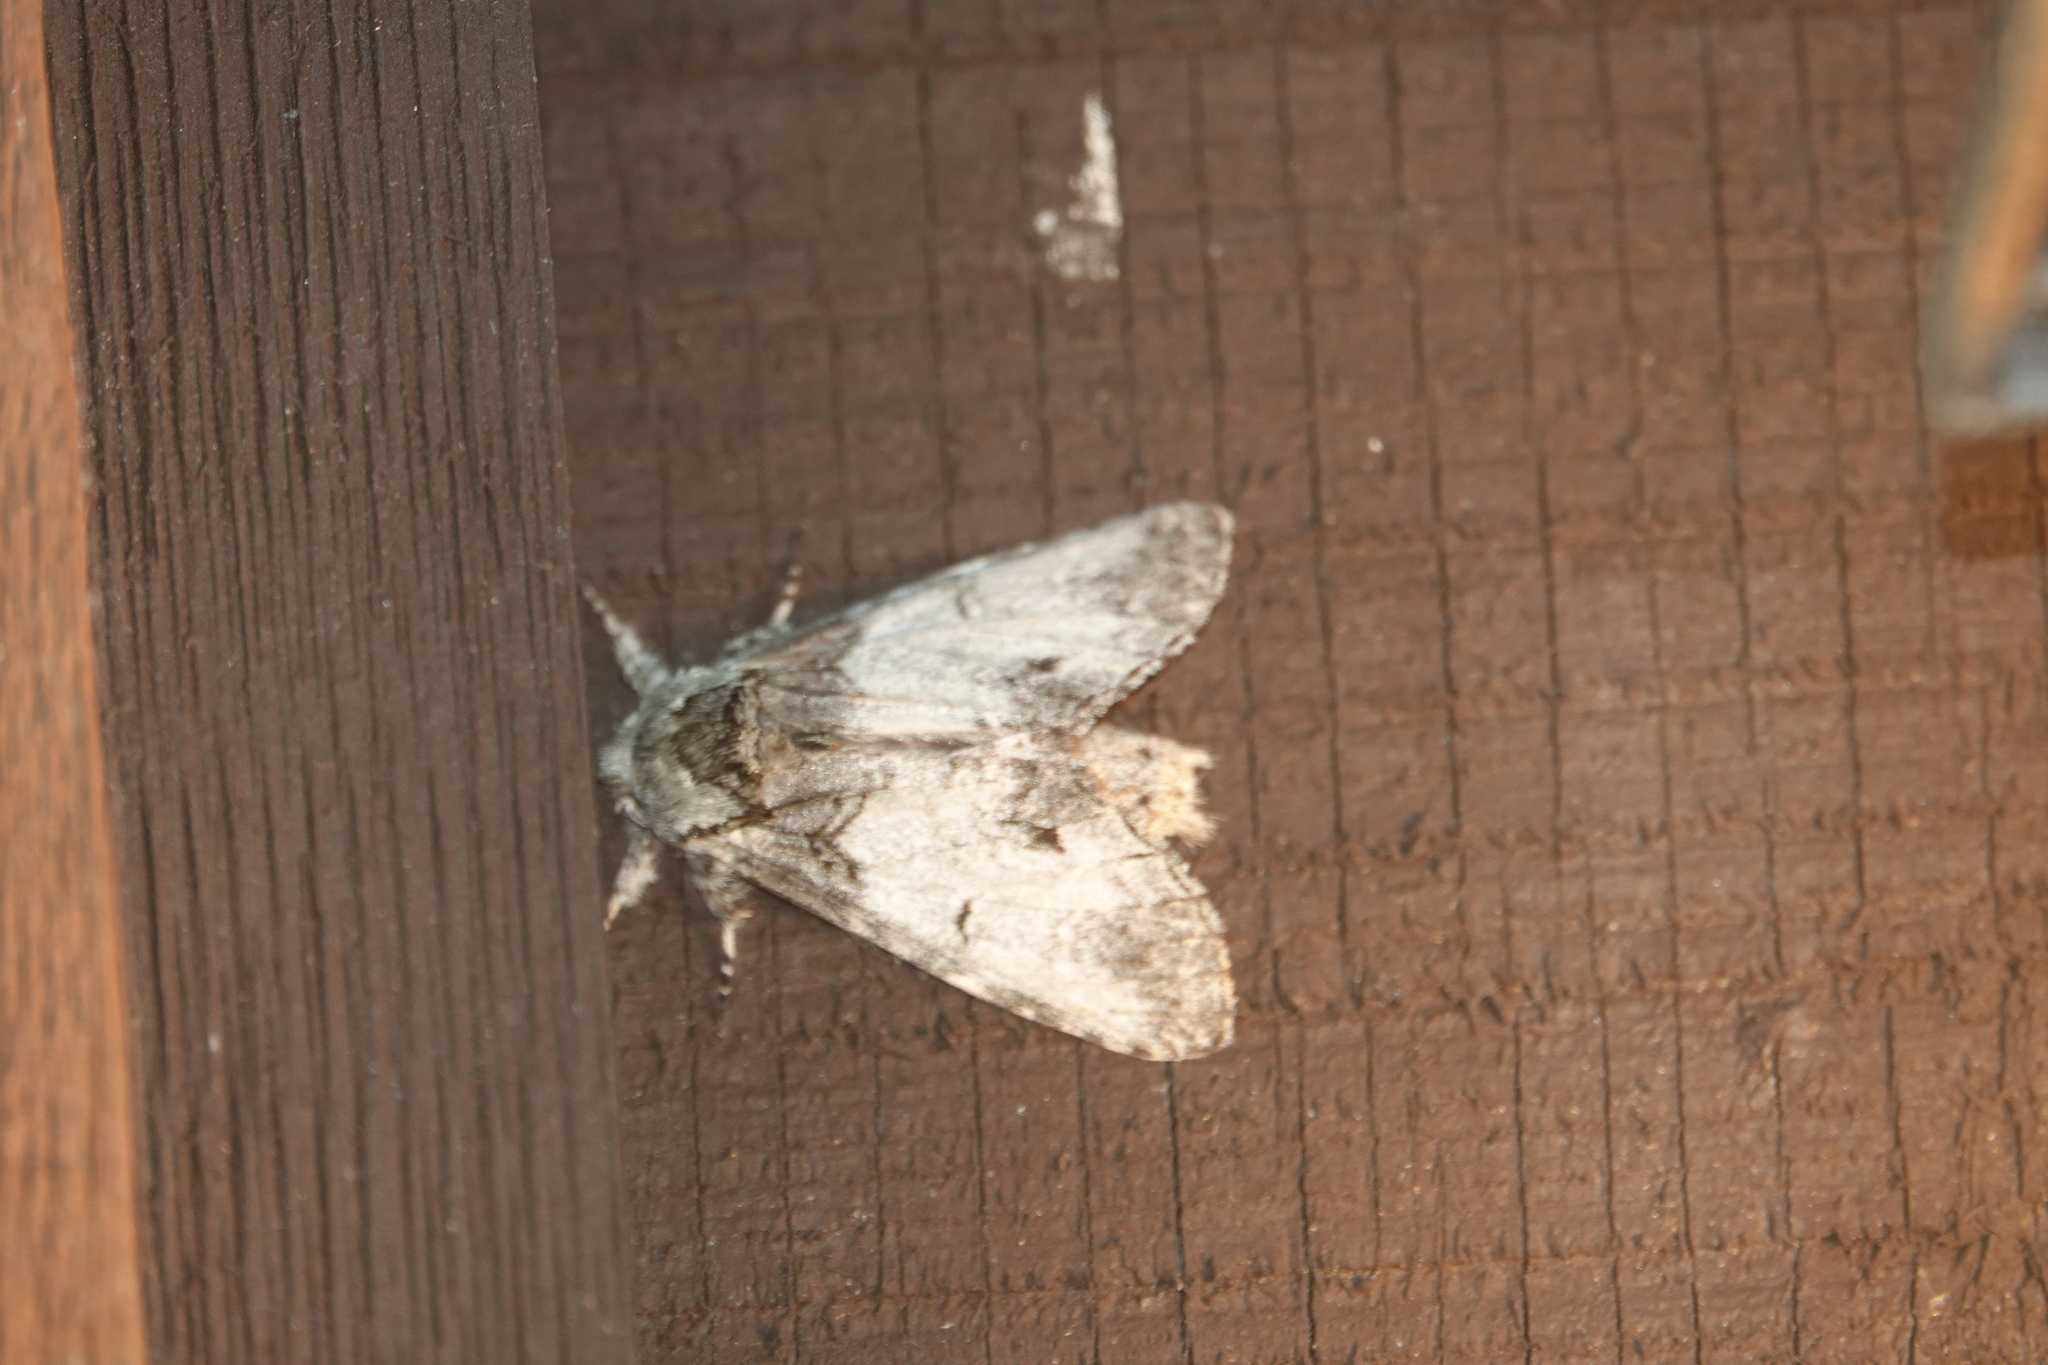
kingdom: Animalia
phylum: Arthropoda
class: Insecta
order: Lepidoptera
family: Notodontidae
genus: Macrurocampa
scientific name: Macrurocampa marthesia
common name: Mottled prominent
